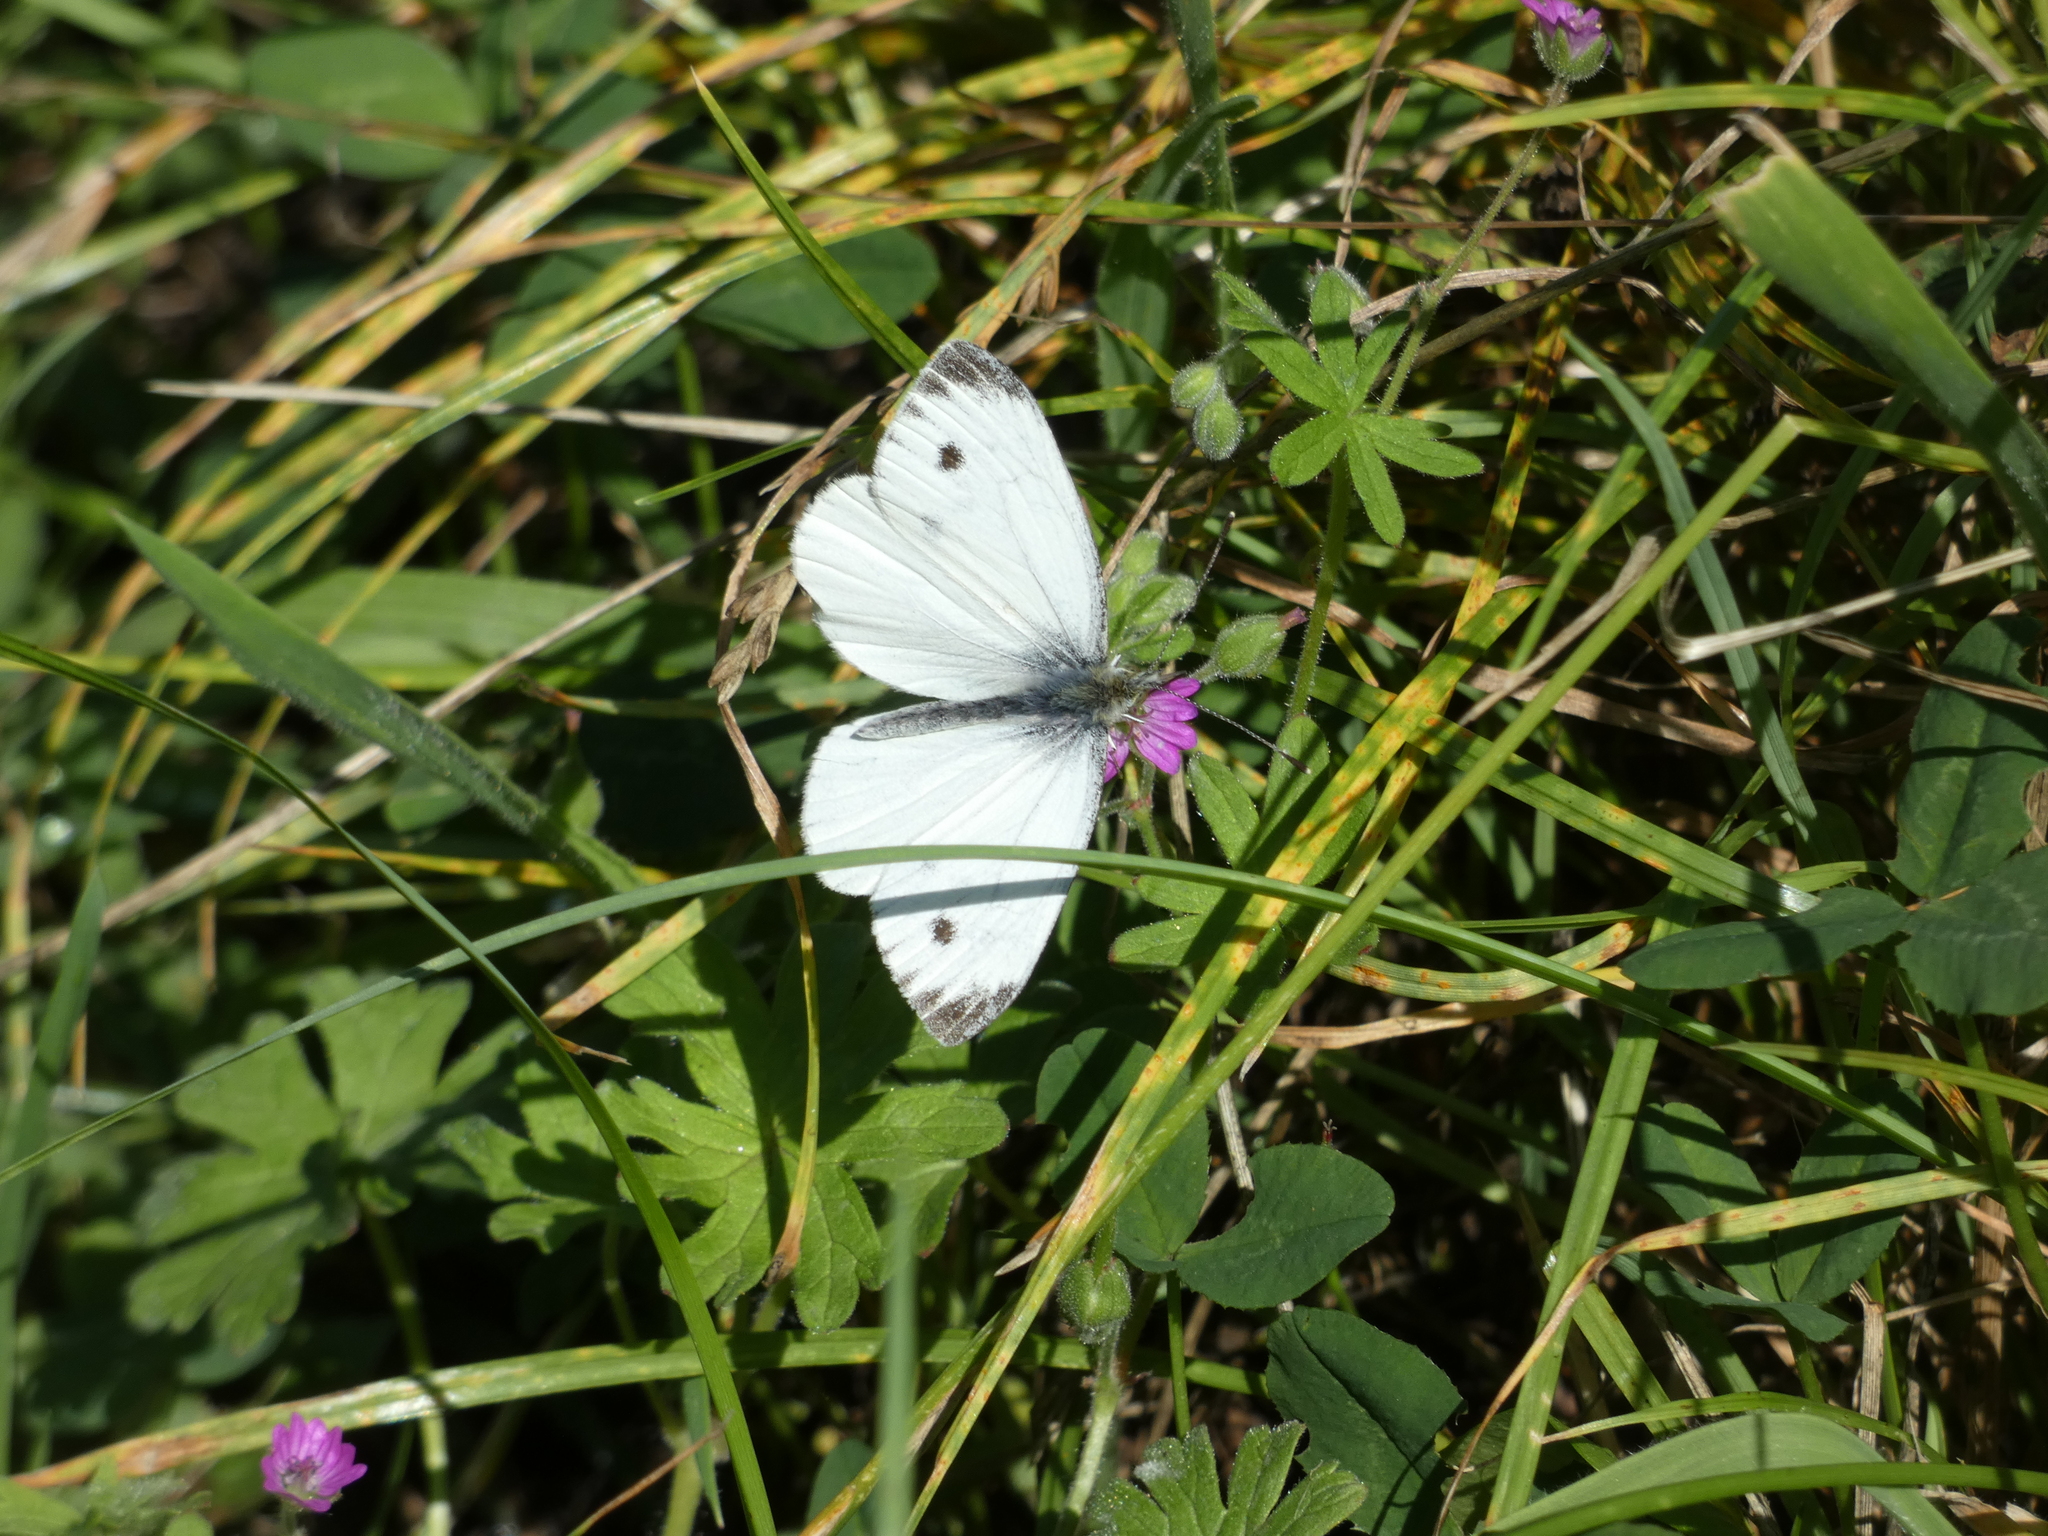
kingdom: Animalia
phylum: Arthropoda
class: Insecta
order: Lepidoptera
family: Pieridae
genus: Pieris
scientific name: Pieris napi
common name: Green-veined white
